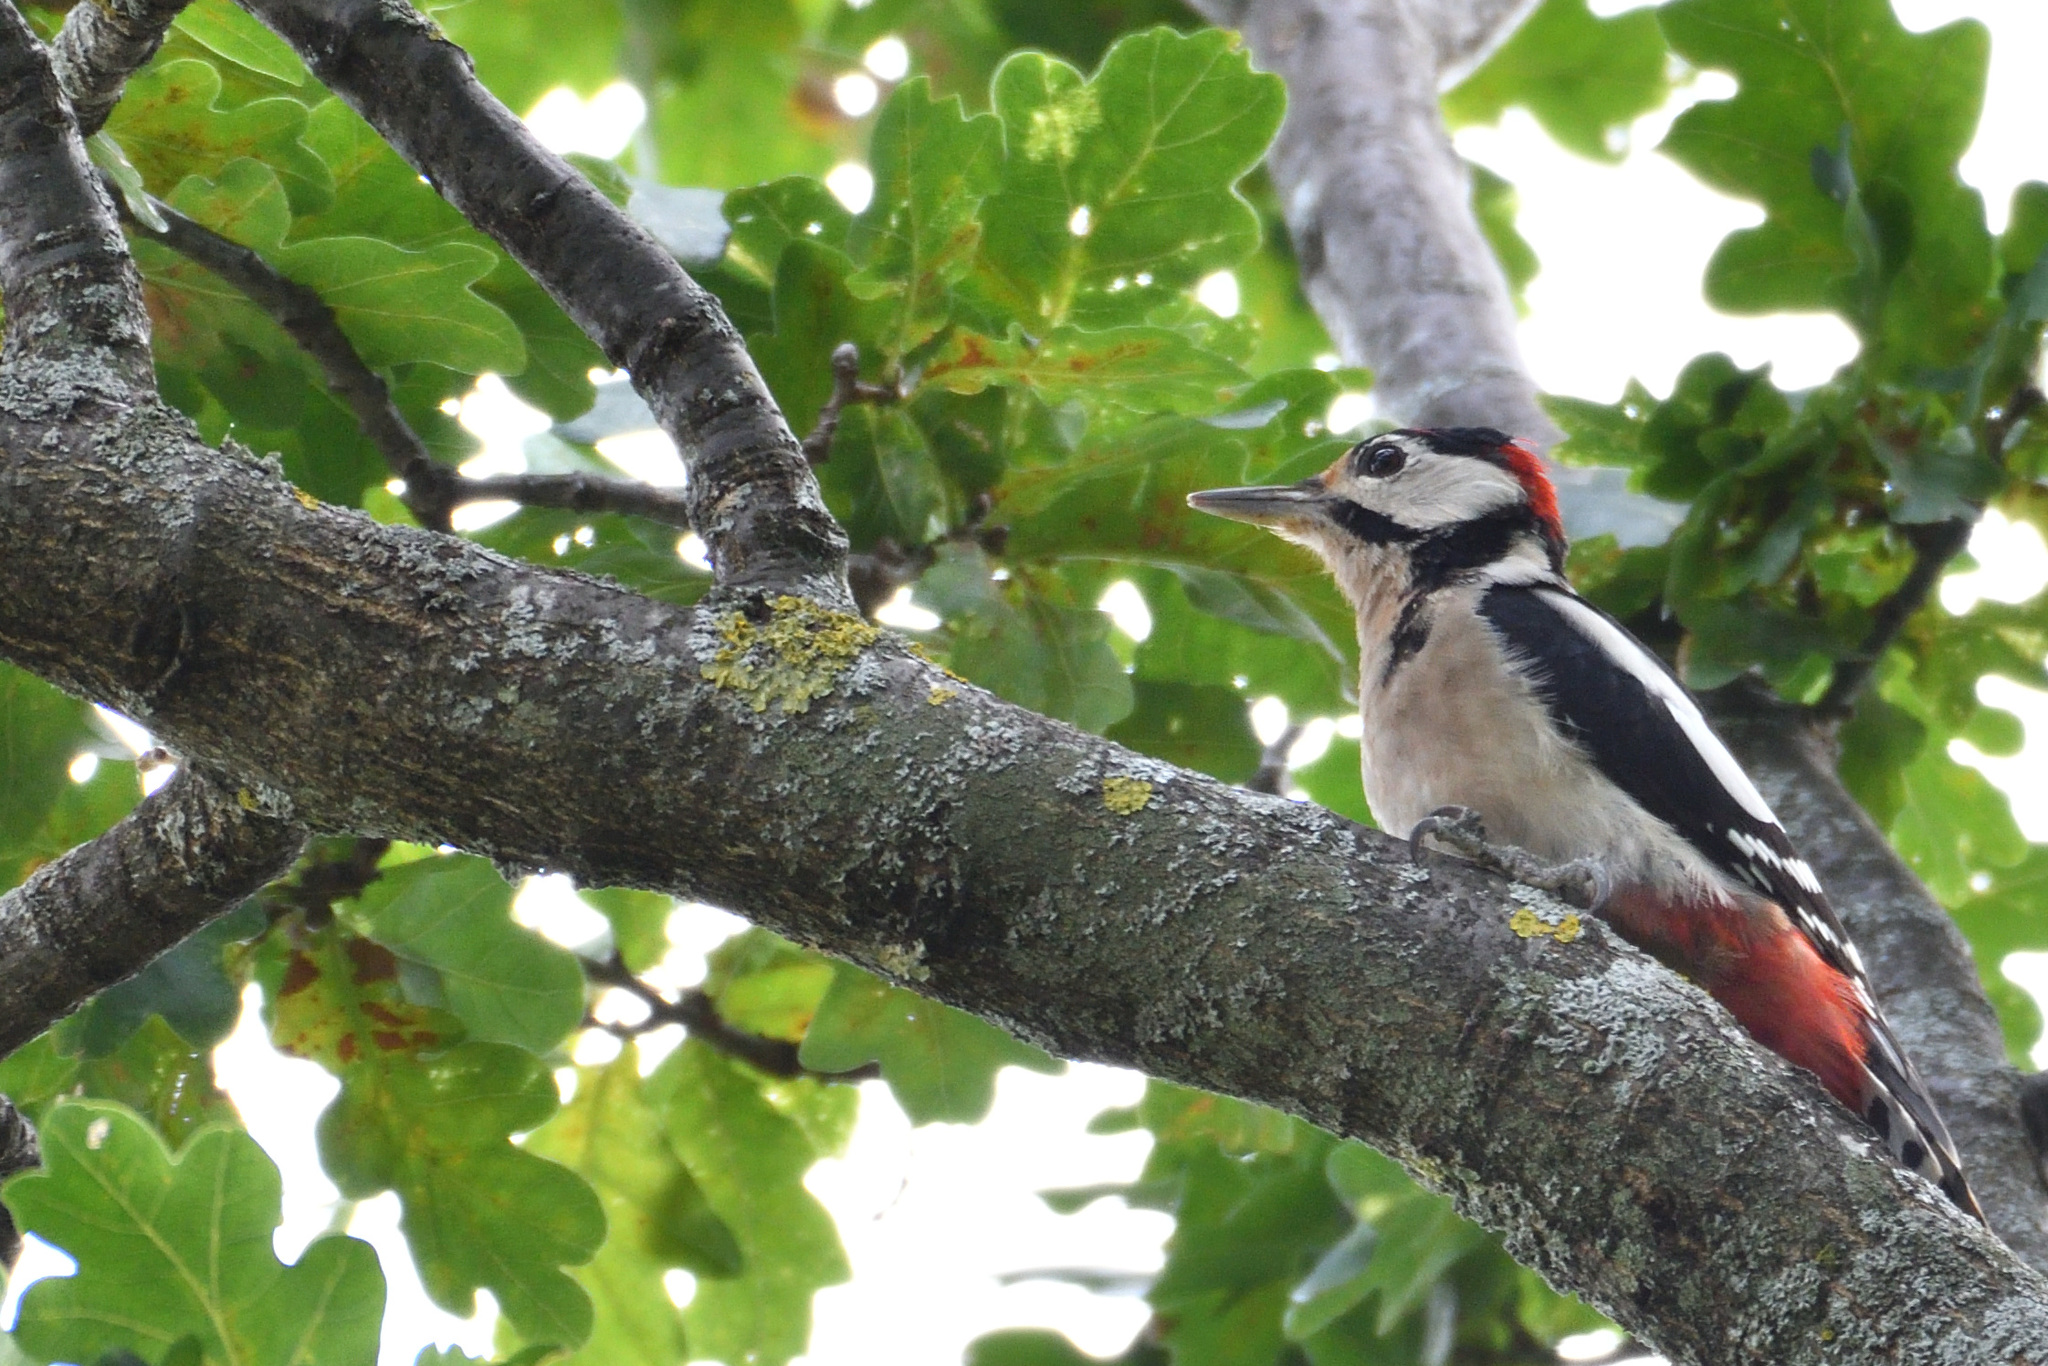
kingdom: Animalia
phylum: Chordata
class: Aves
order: Piciformes
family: Picidae
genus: Dendrocopos
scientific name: Dendrocopos major
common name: Great spotted woodpecker
